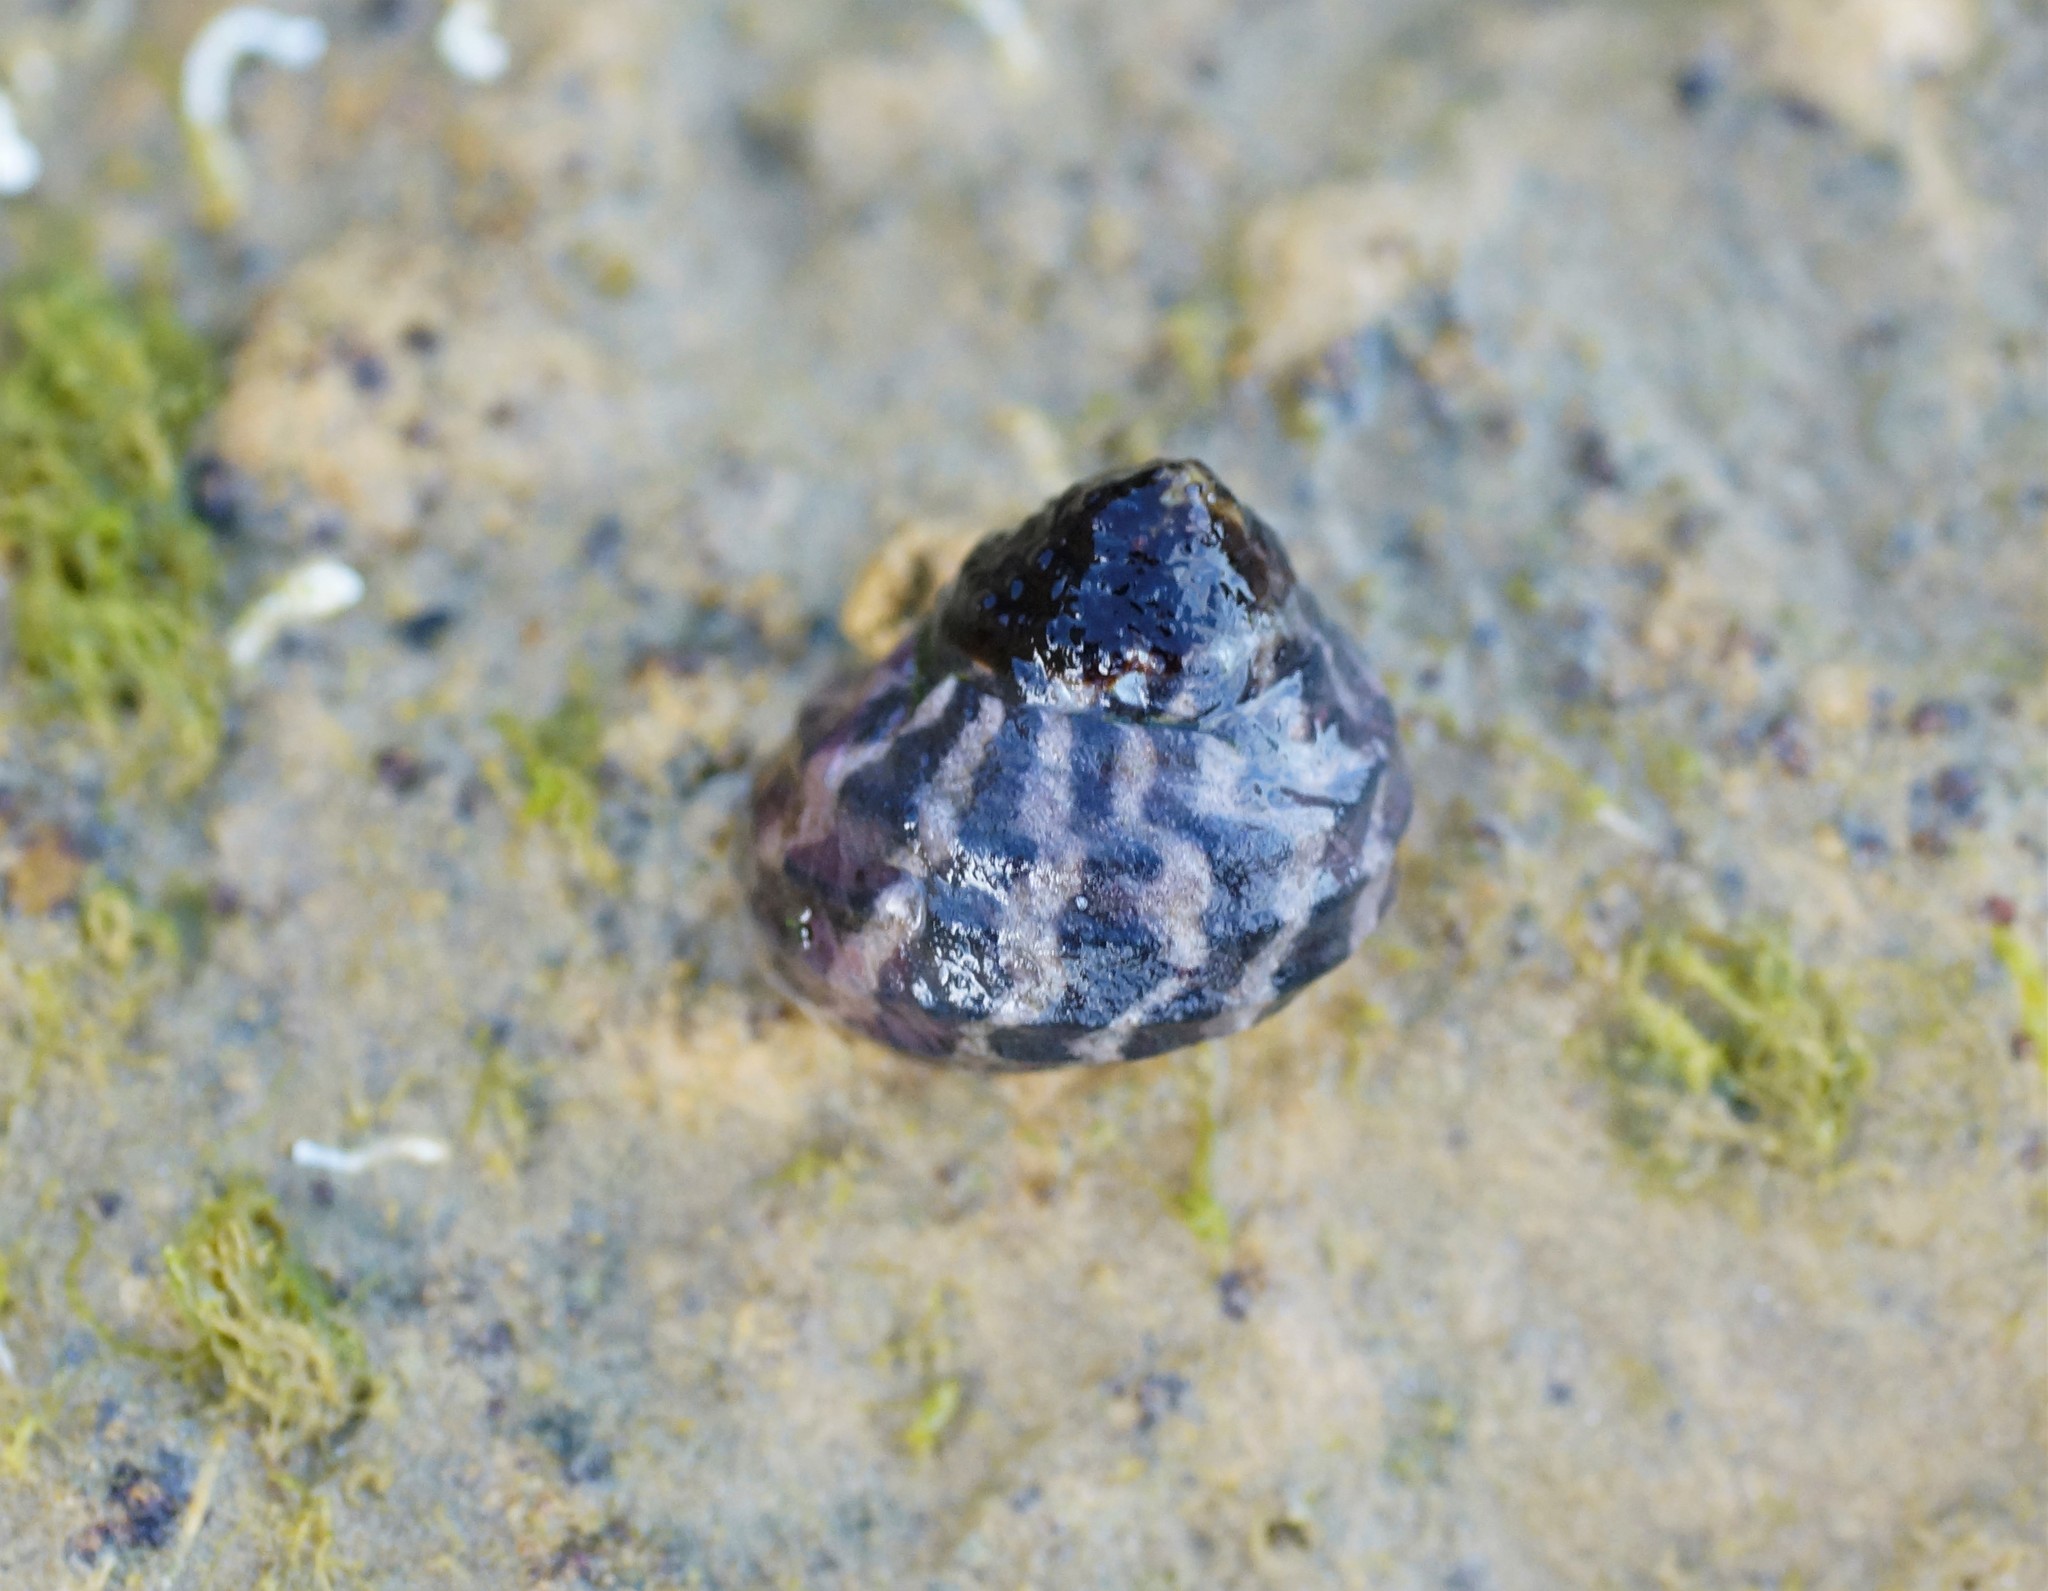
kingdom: Animalia
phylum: Mollusca
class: Gastropoda
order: Trochida
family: Trochidae
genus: Austrocochlea
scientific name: Austrocochlea porcata
